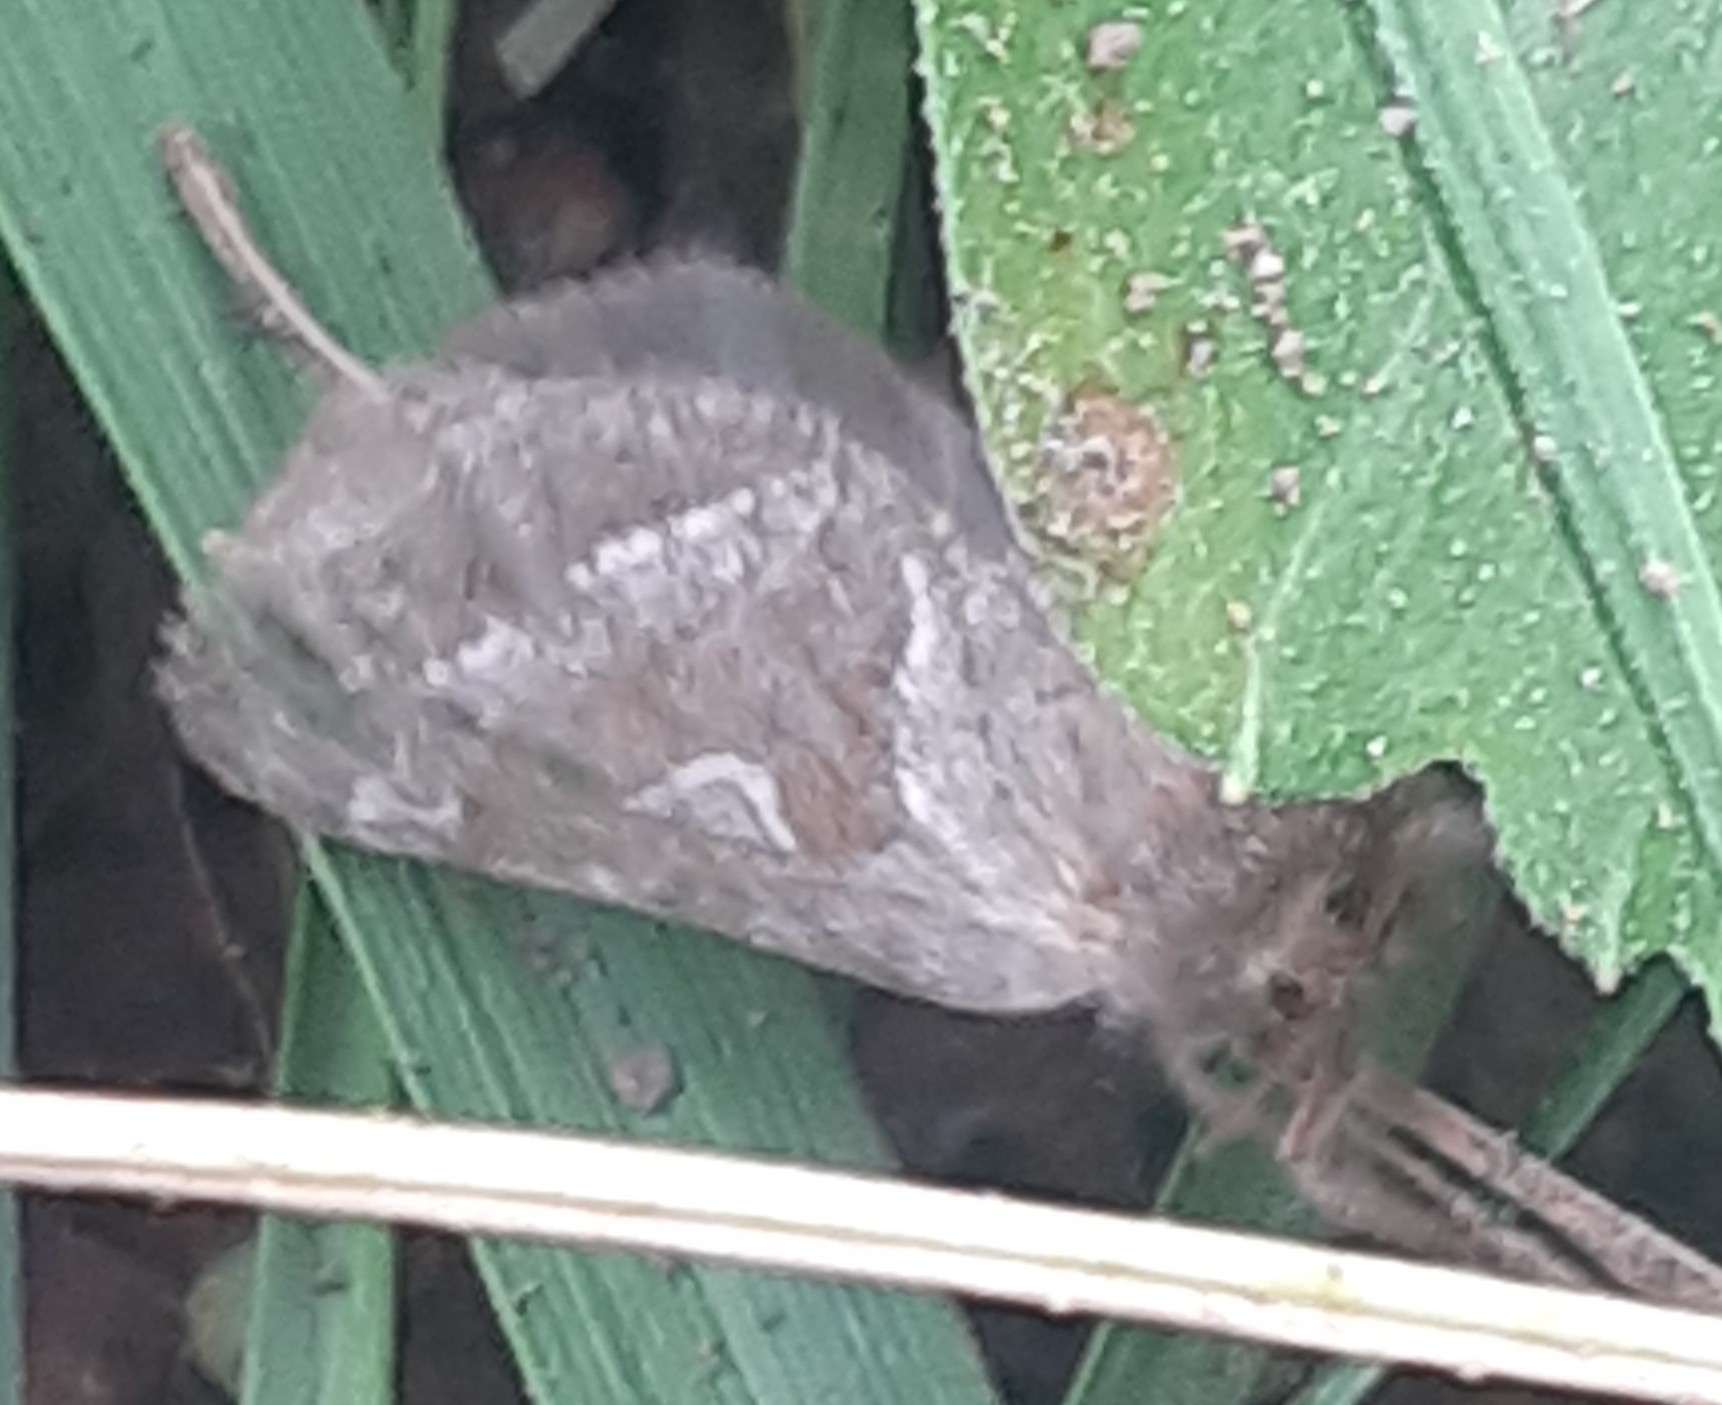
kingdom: Animalia
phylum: Arthropoda
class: Insecta
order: Lepidoptera
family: Hepialidae
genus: Triodia
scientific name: Triodia sylvina
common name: Orange swift
